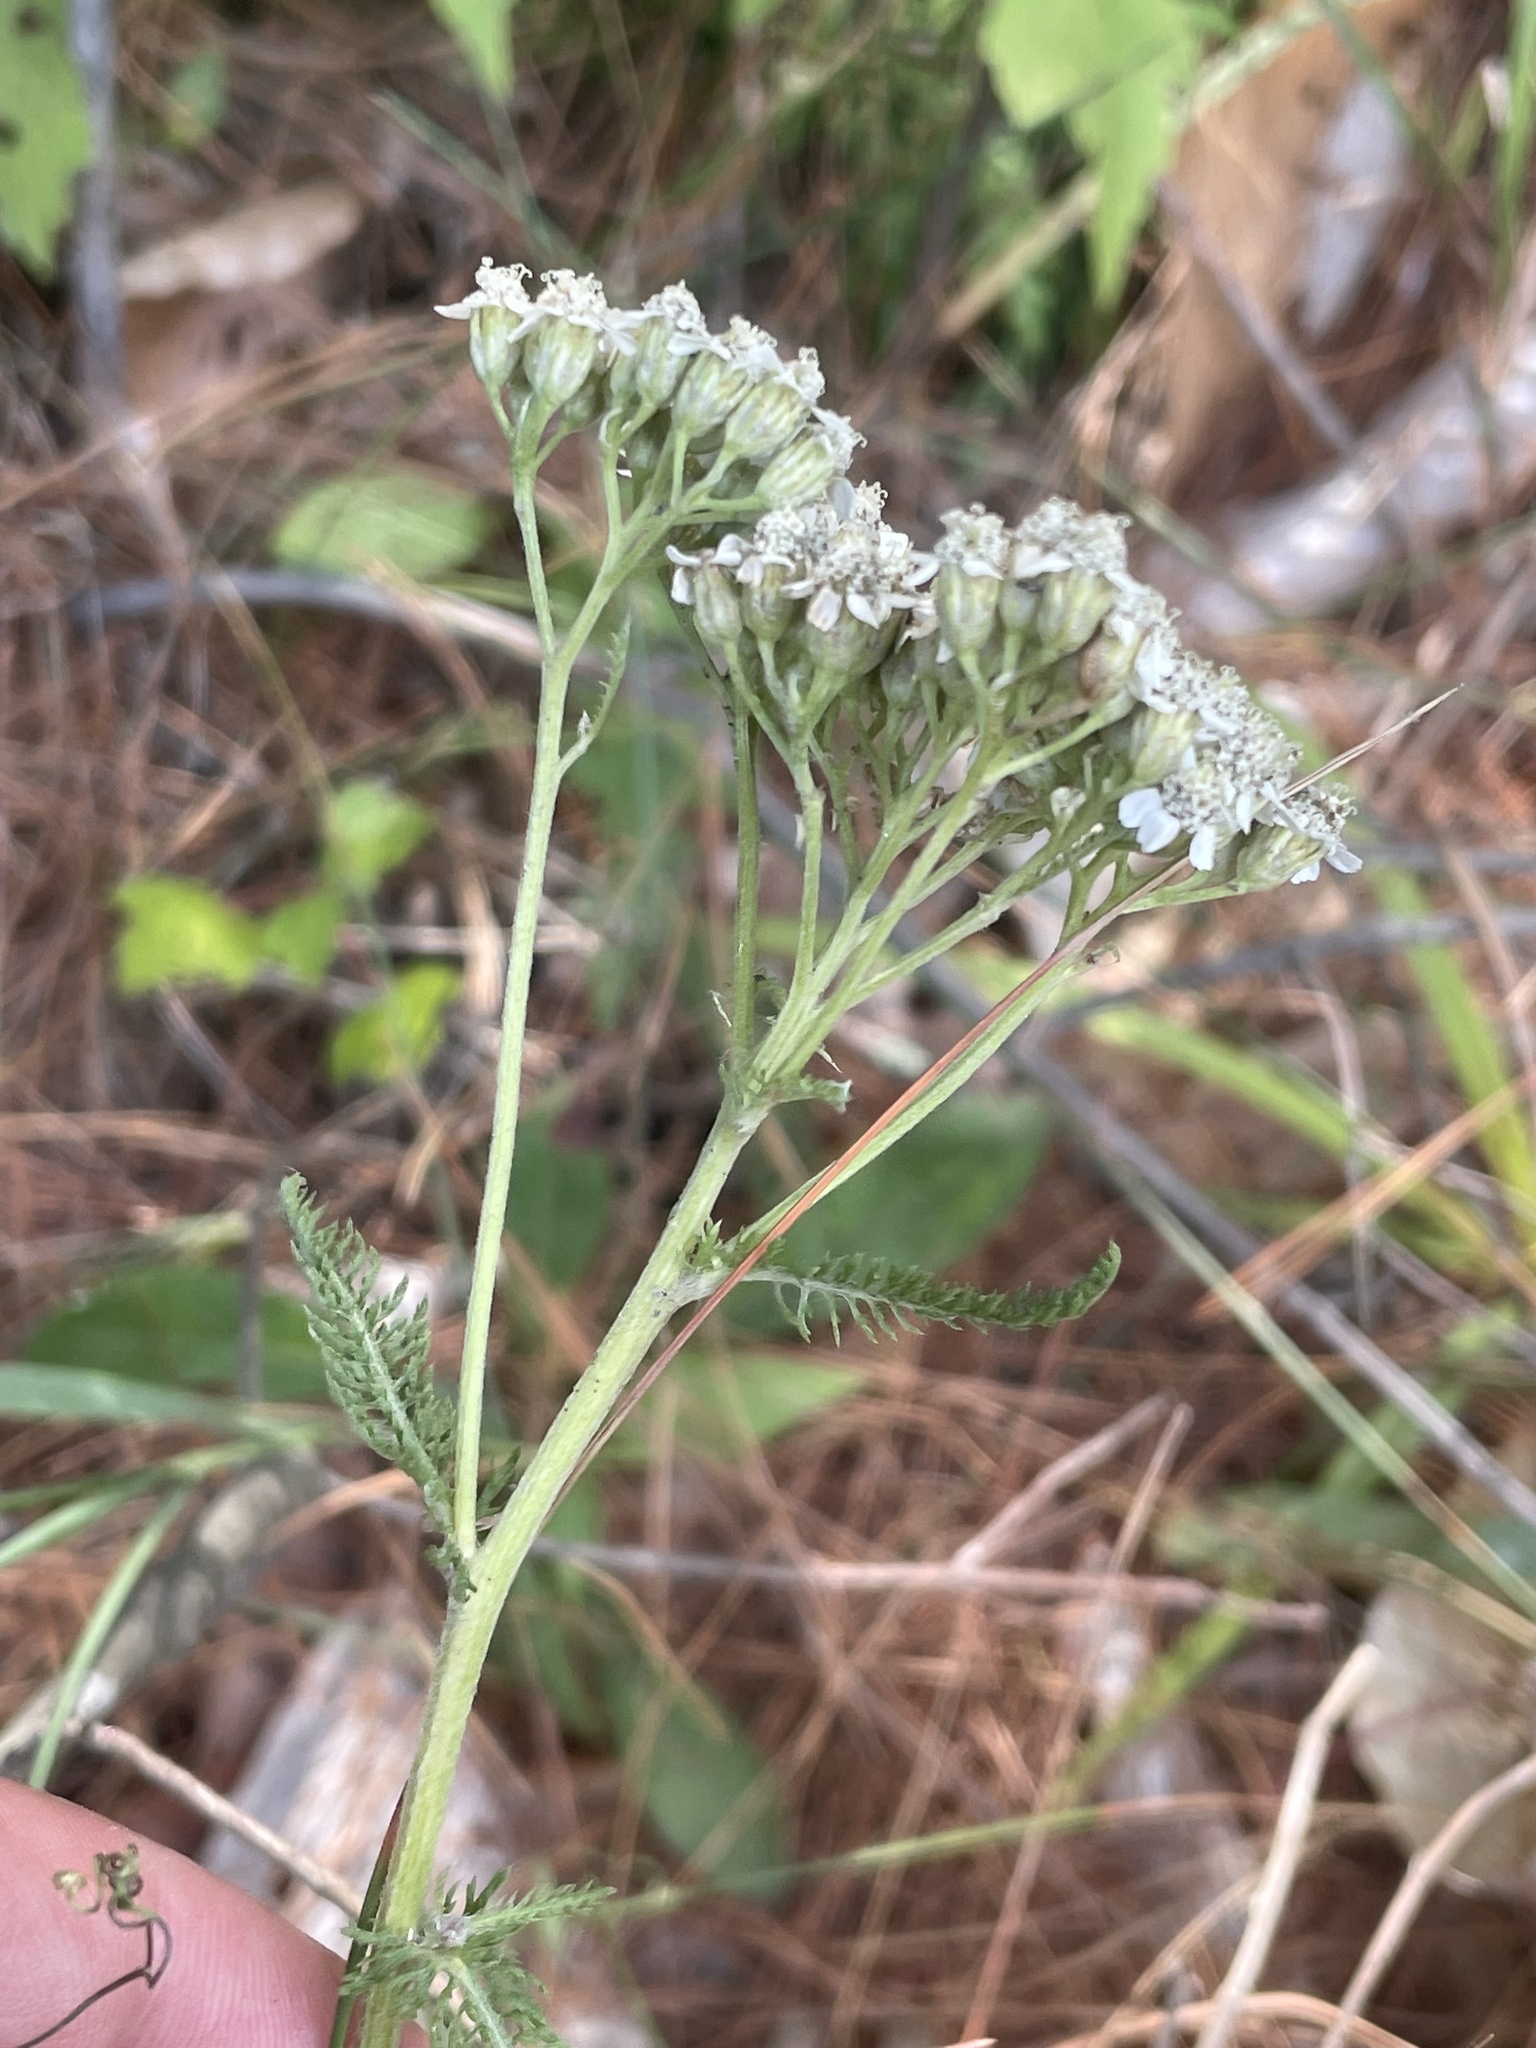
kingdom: Plantae
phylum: Tracheophyta
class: Magnoliopsida
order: Asterales
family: Asteraceae
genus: Achillea
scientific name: Achillea millefolium
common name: Yarrow
